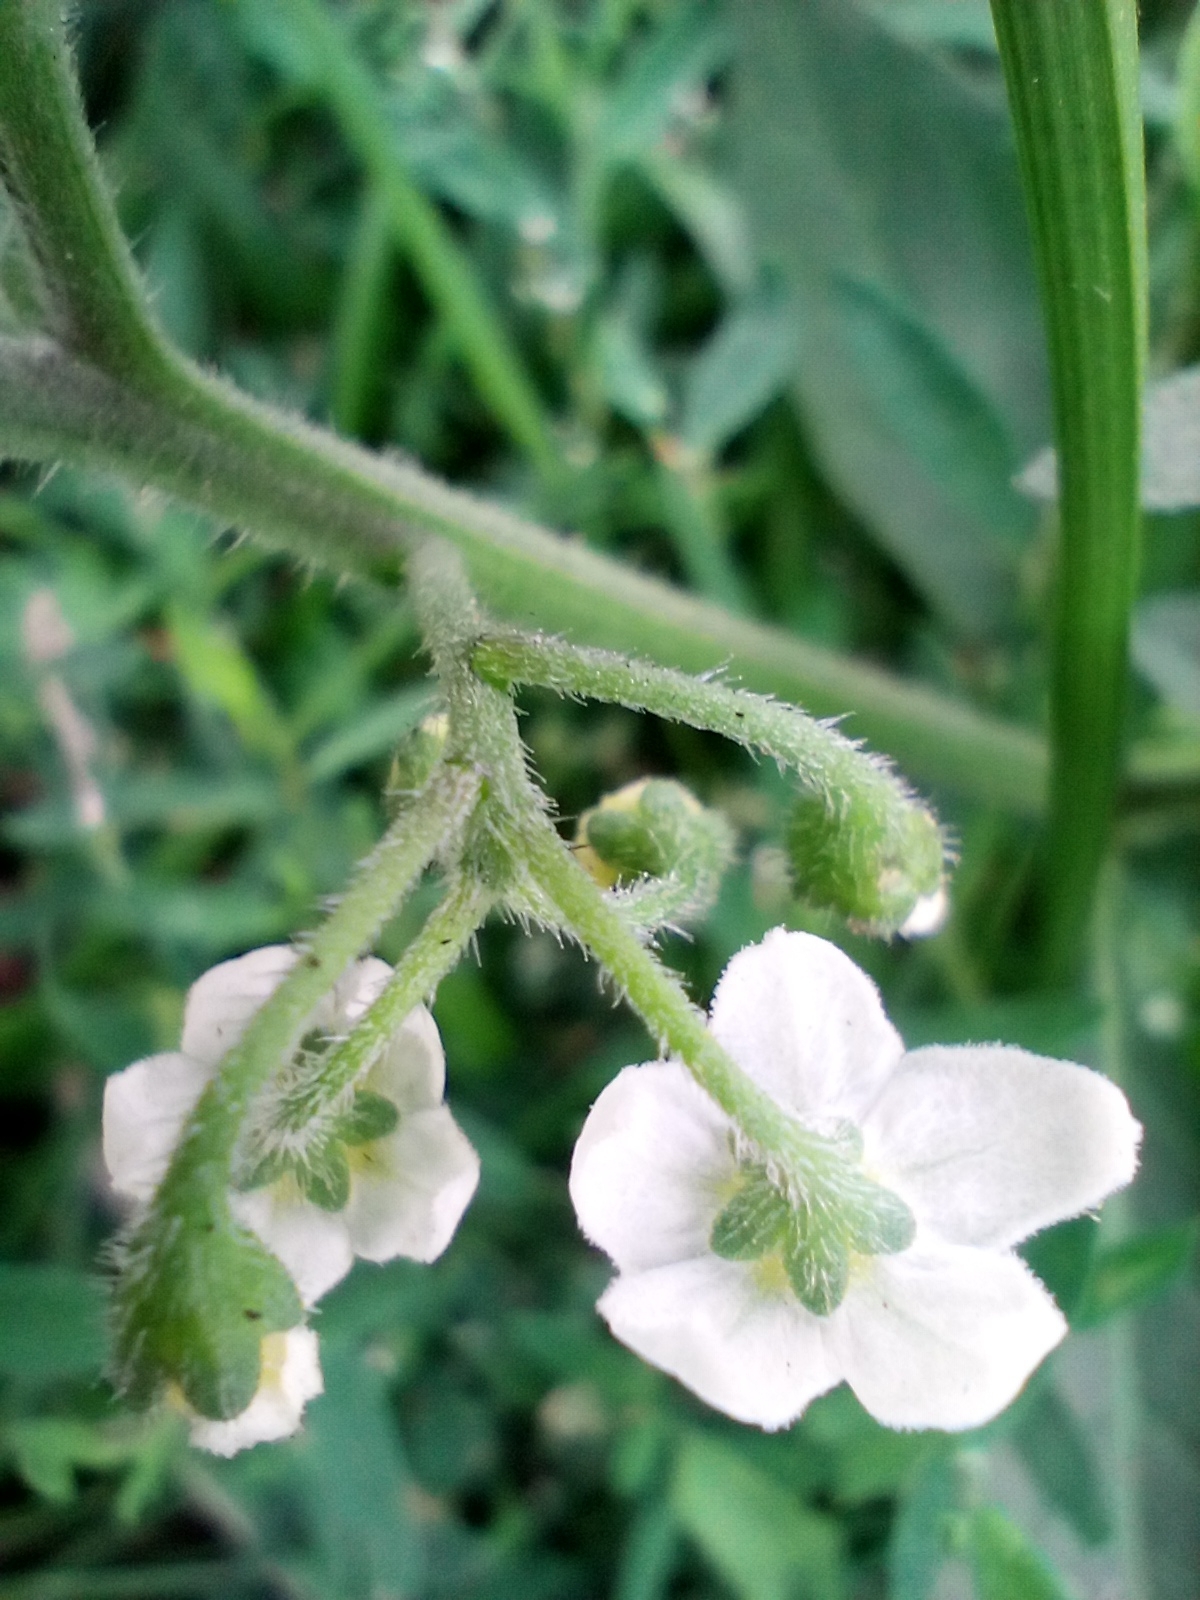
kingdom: Plantae
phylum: Tracheophyta
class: Magnoliopsida
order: Solanales
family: Solanaceae
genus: Solanum
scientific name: Solanum decipiens
